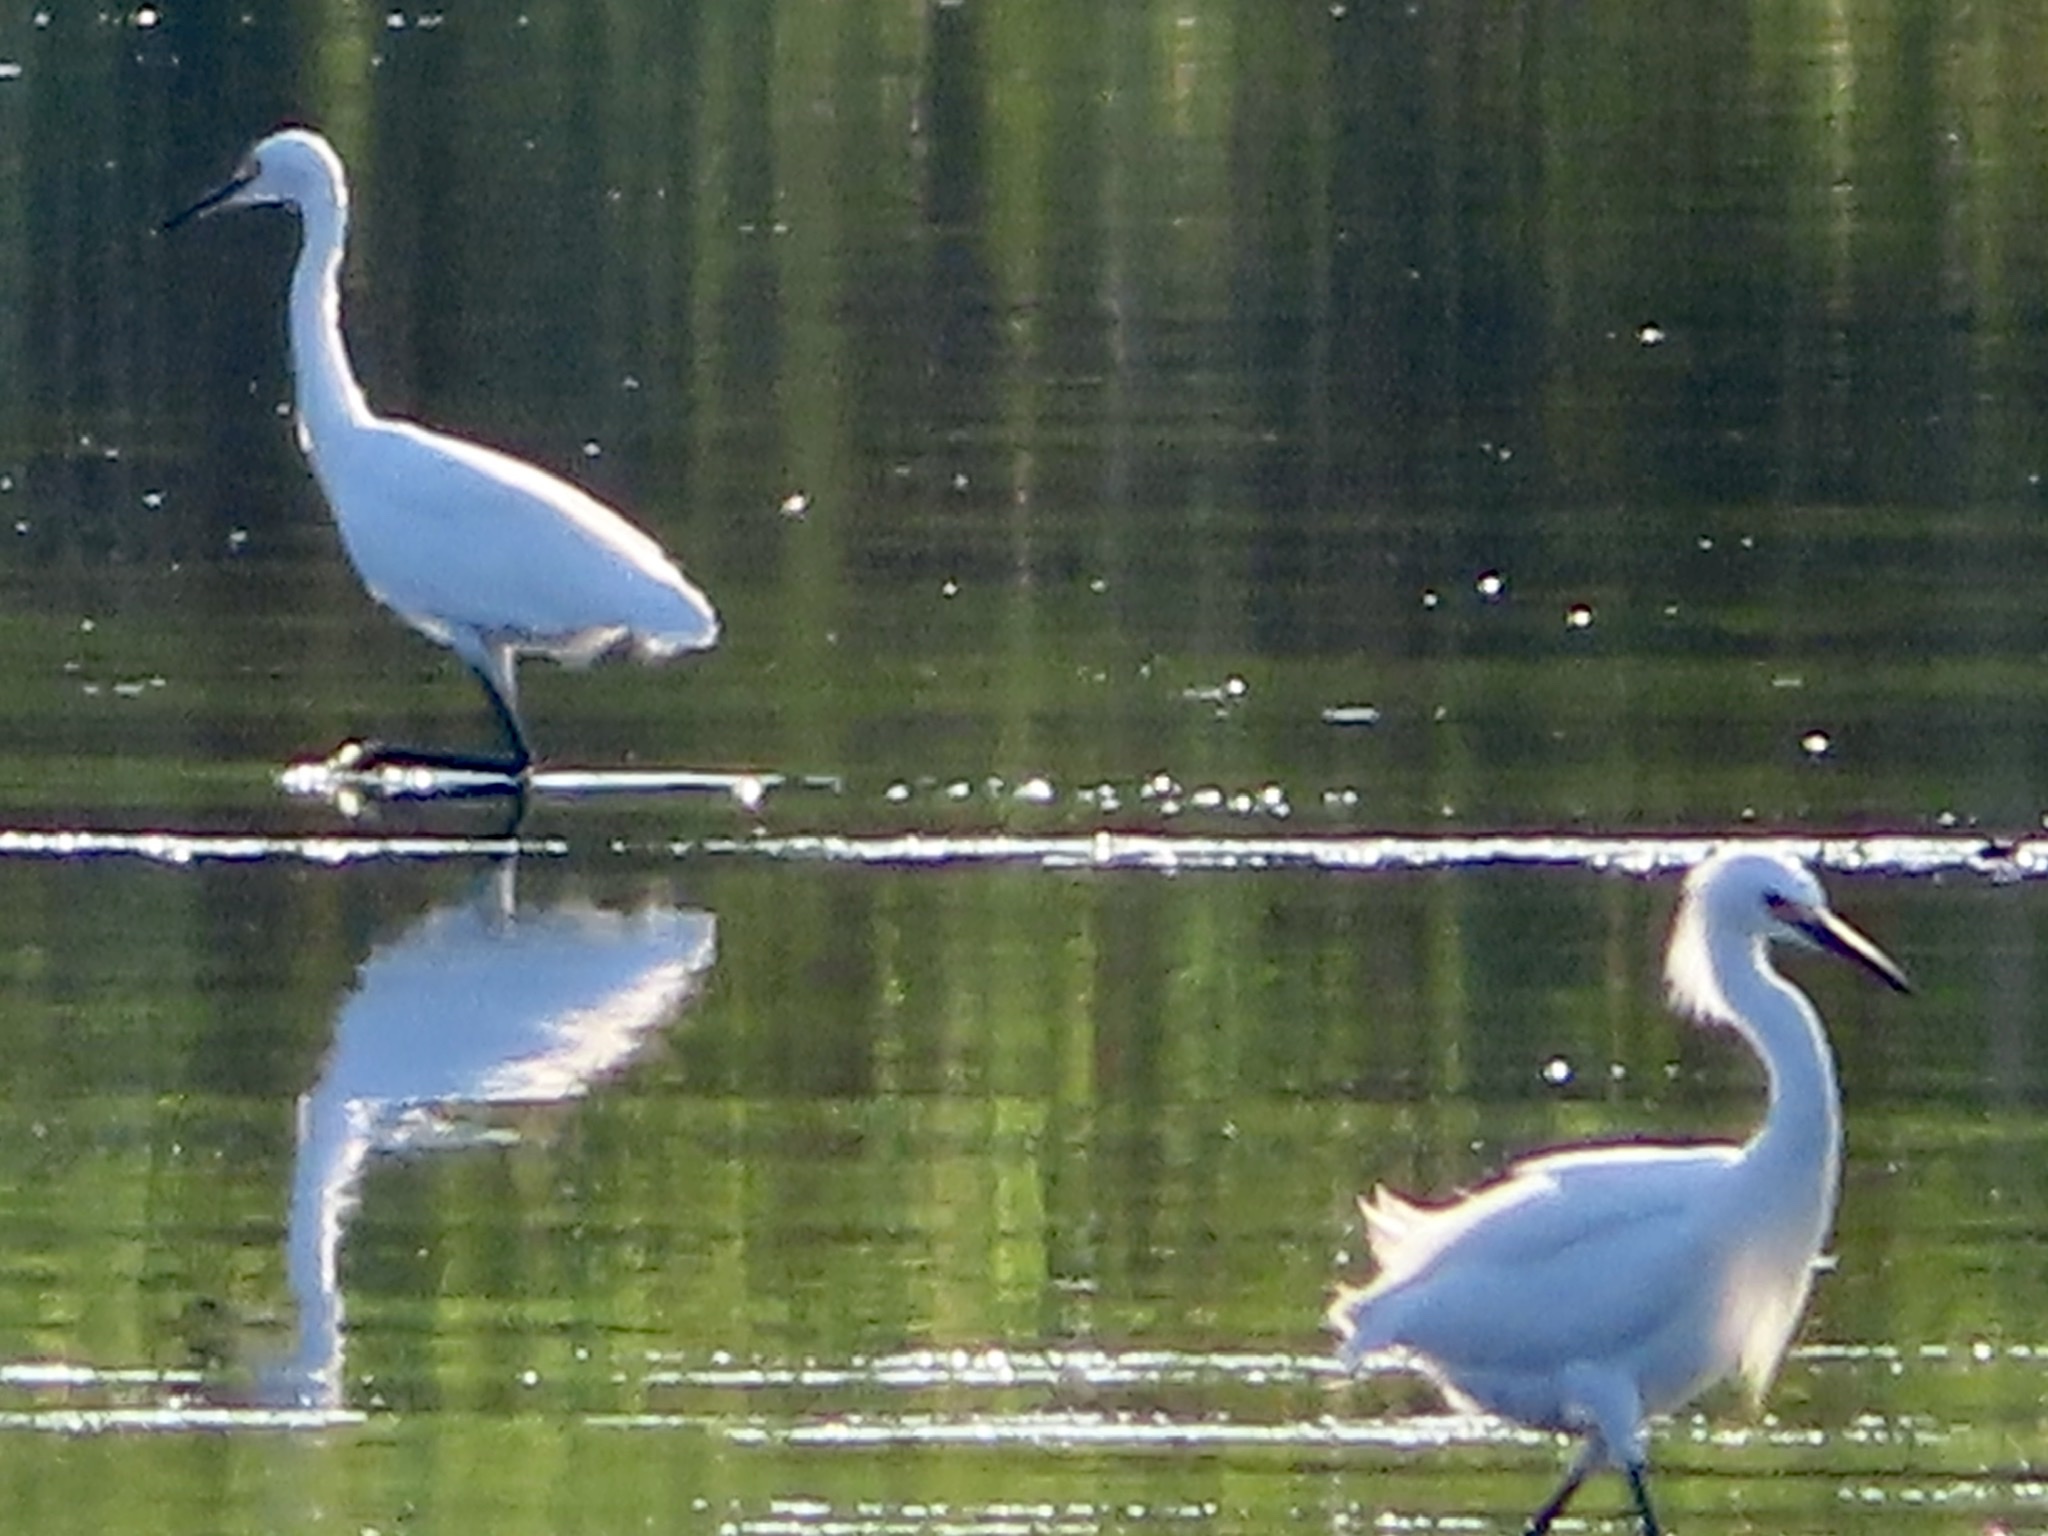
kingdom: Animalia
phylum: Chordata
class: Aves
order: Pelecaniformes
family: Ardeidae
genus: Egretta
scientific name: Egretta thula
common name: Snowy egret
